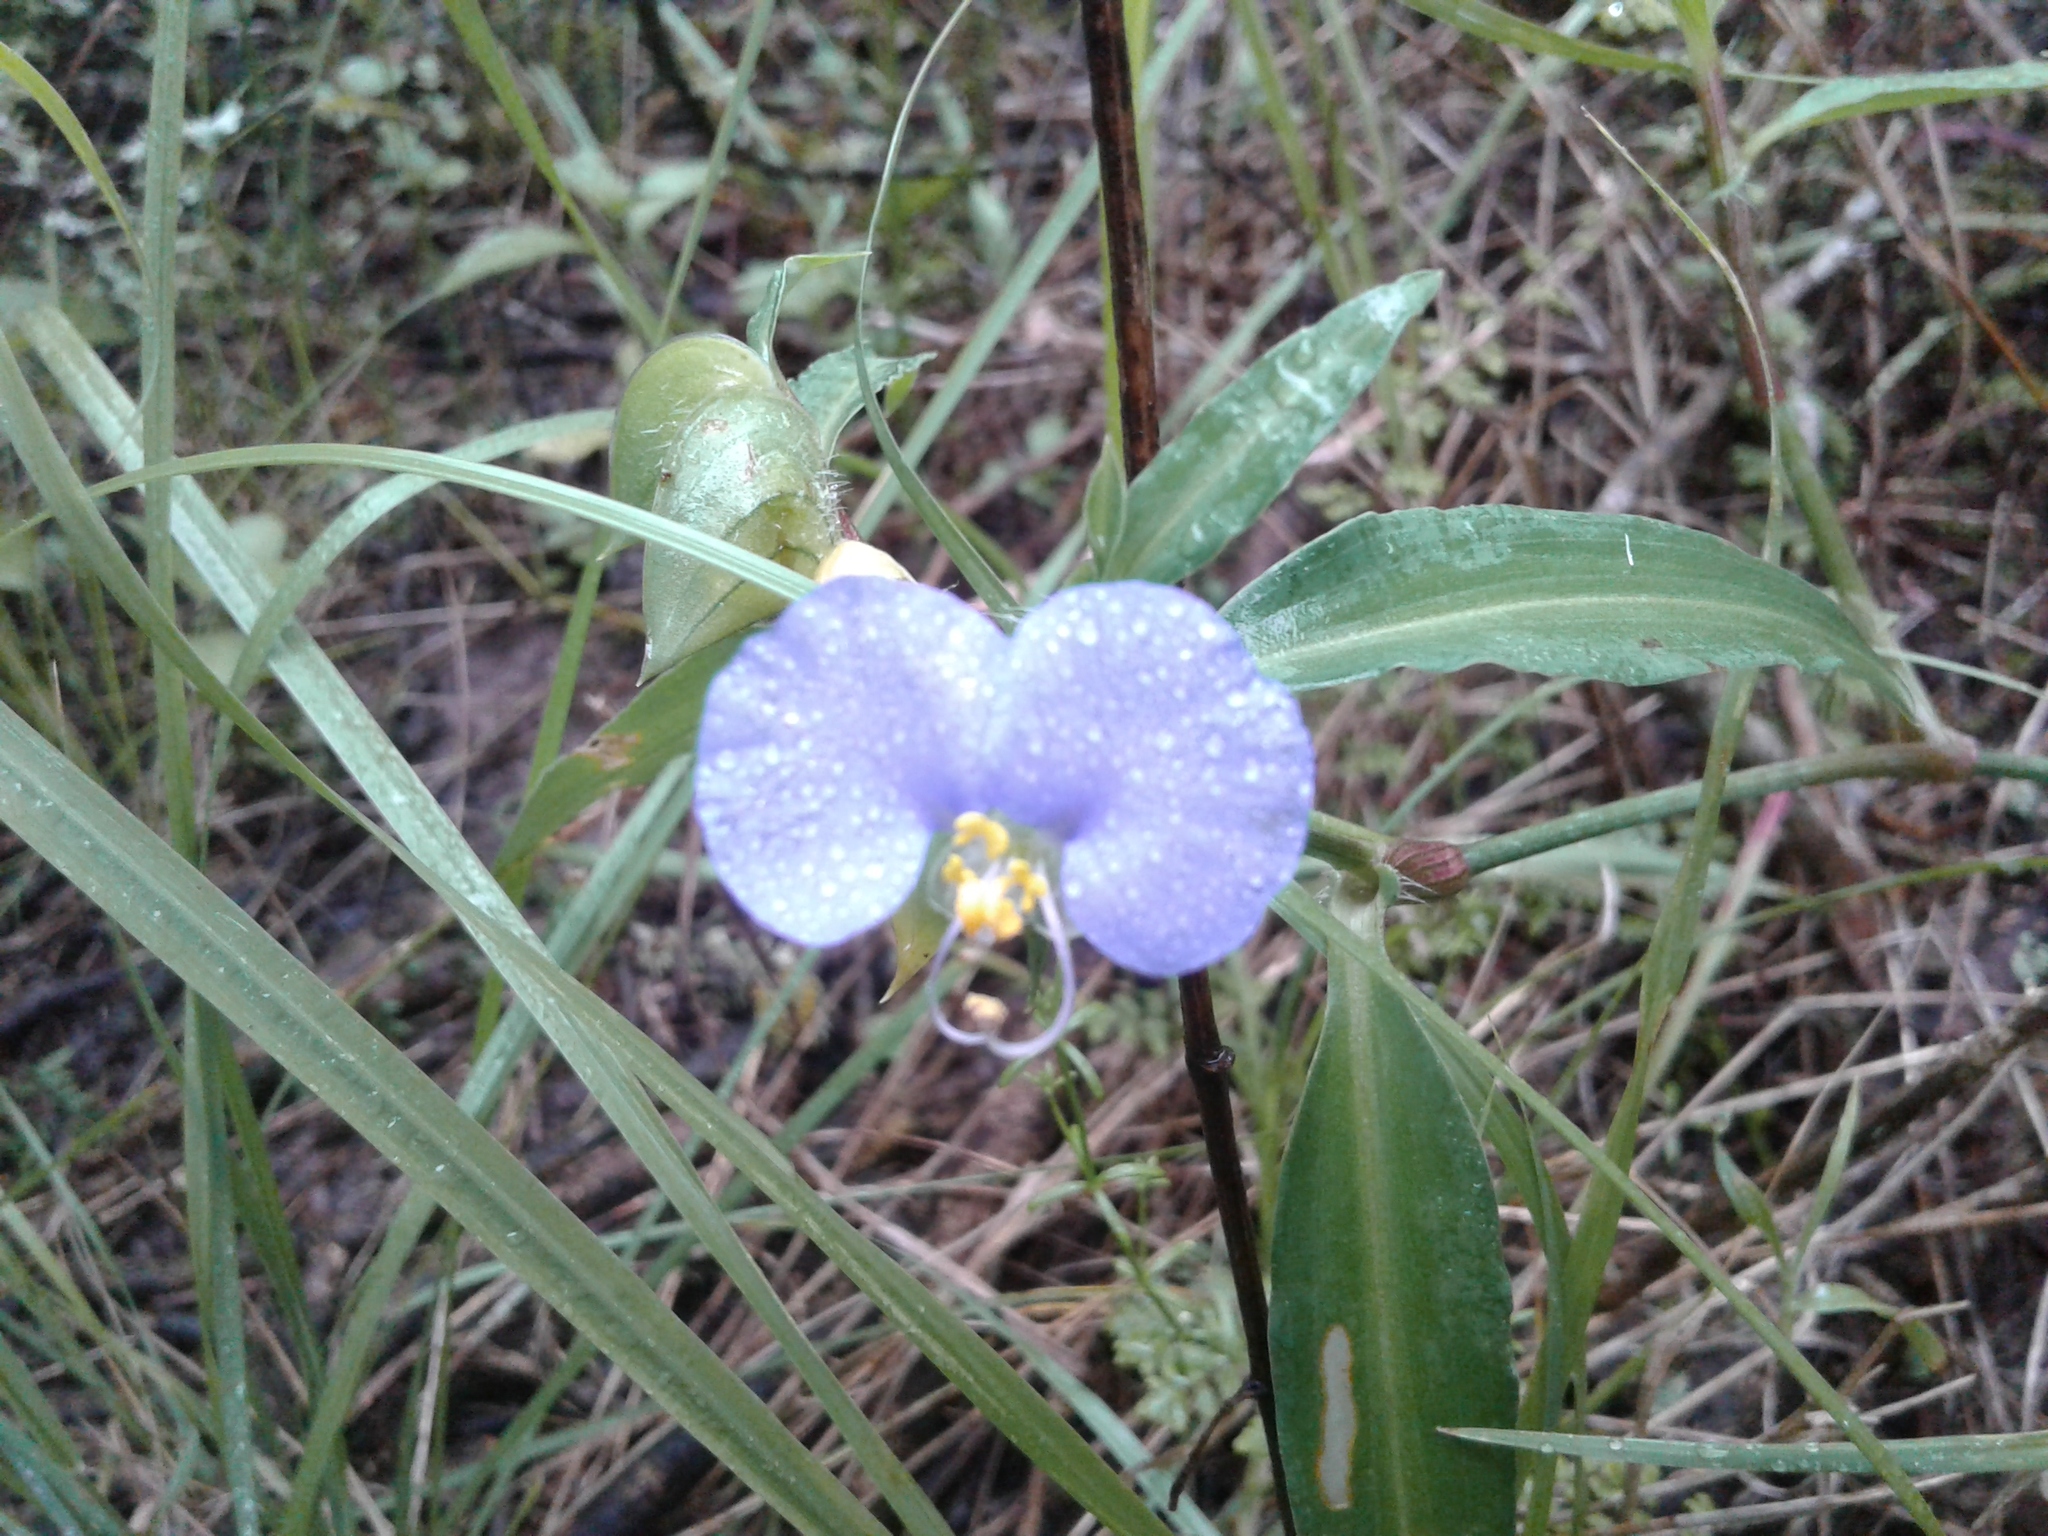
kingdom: Plantae
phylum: Tracheophyta
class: Liliopsida
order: Commelinales
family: Commelinaceae
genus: Commelina
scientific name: Commelina erecta
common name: Blousel blommetjie
